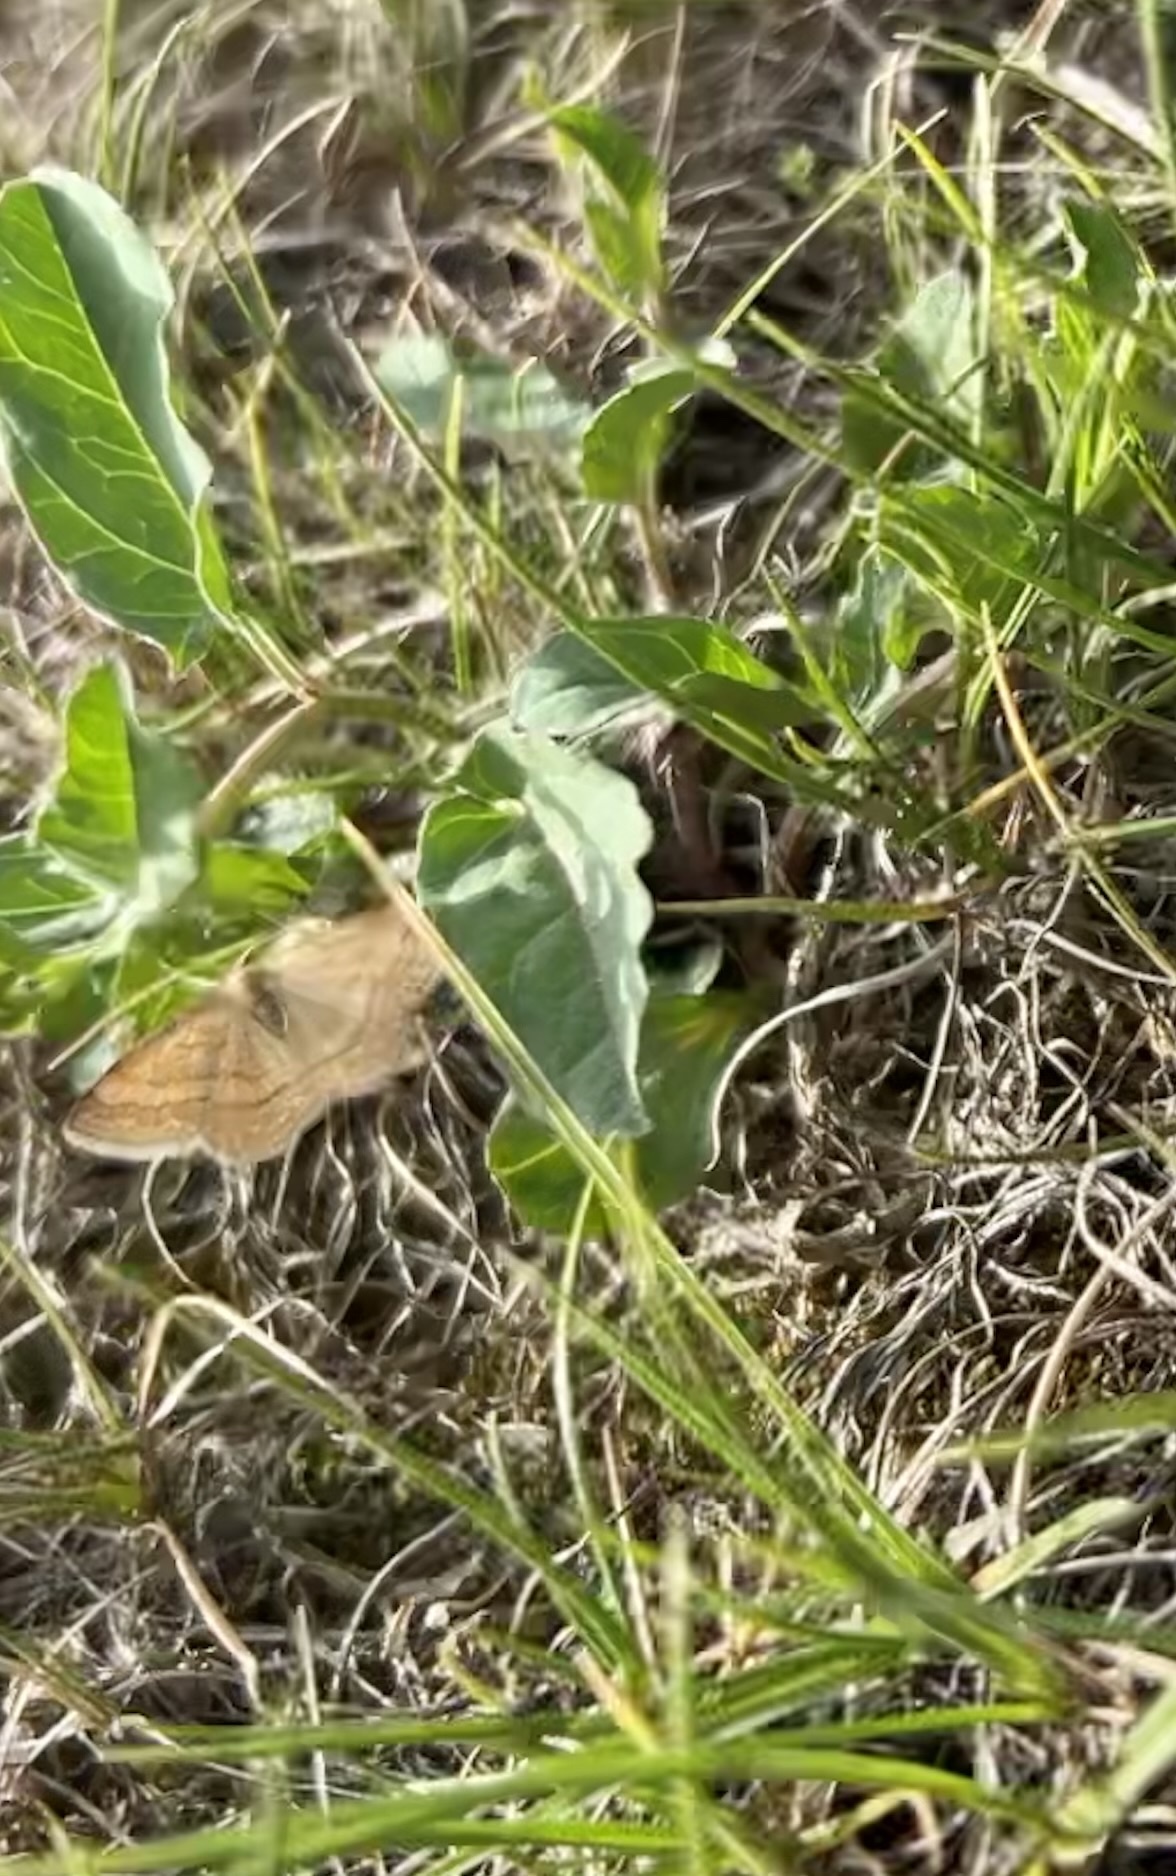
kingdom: Animalia
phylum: Arthropoda
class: Insecta
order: Lepidoptera
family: Geometridae
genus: Scopula
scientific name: Scopula rubiginata
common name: Tawny wave
